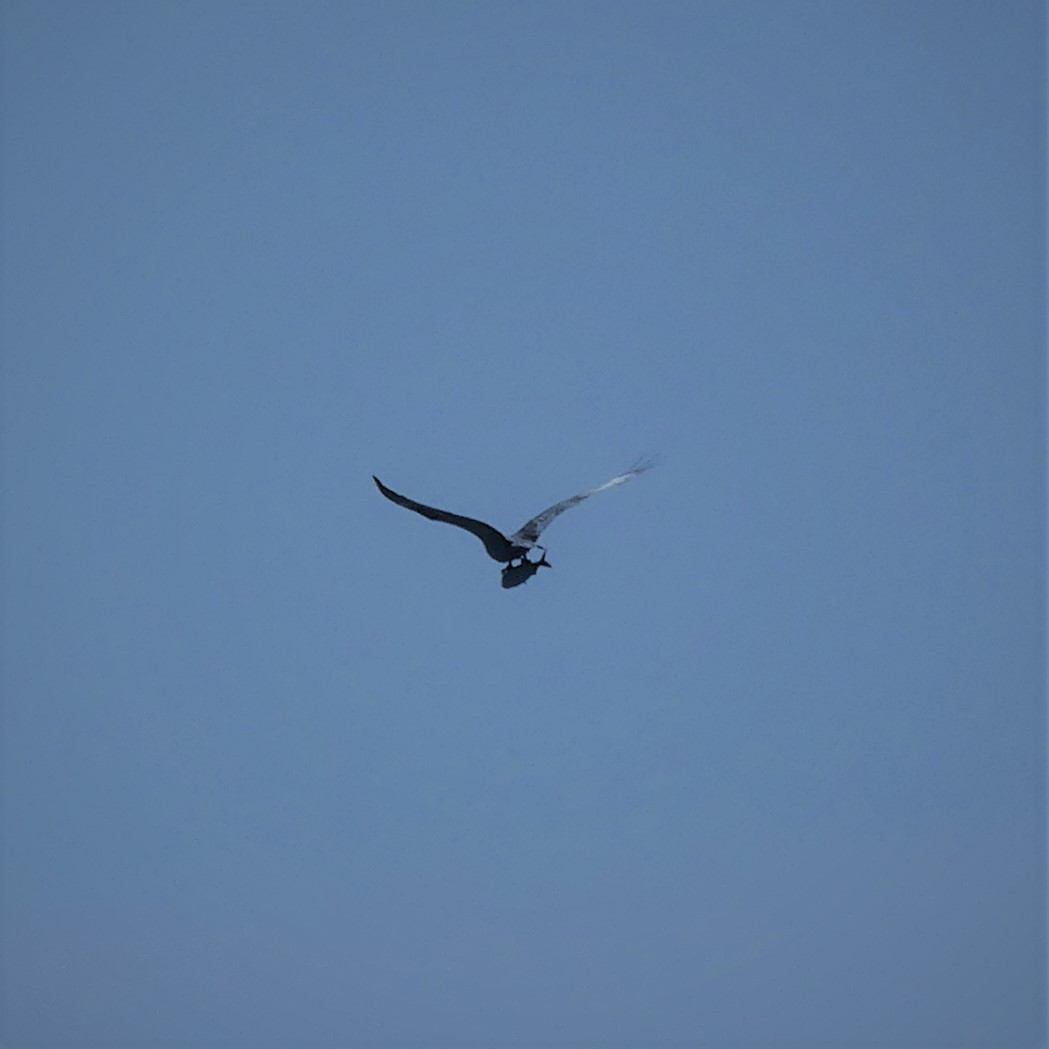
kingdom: Animalia
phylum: Chordata
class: Aves
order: Accipitriformes
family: Pandionidae
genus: Pandion
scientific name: Pandion haliaetus
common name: Osprey
